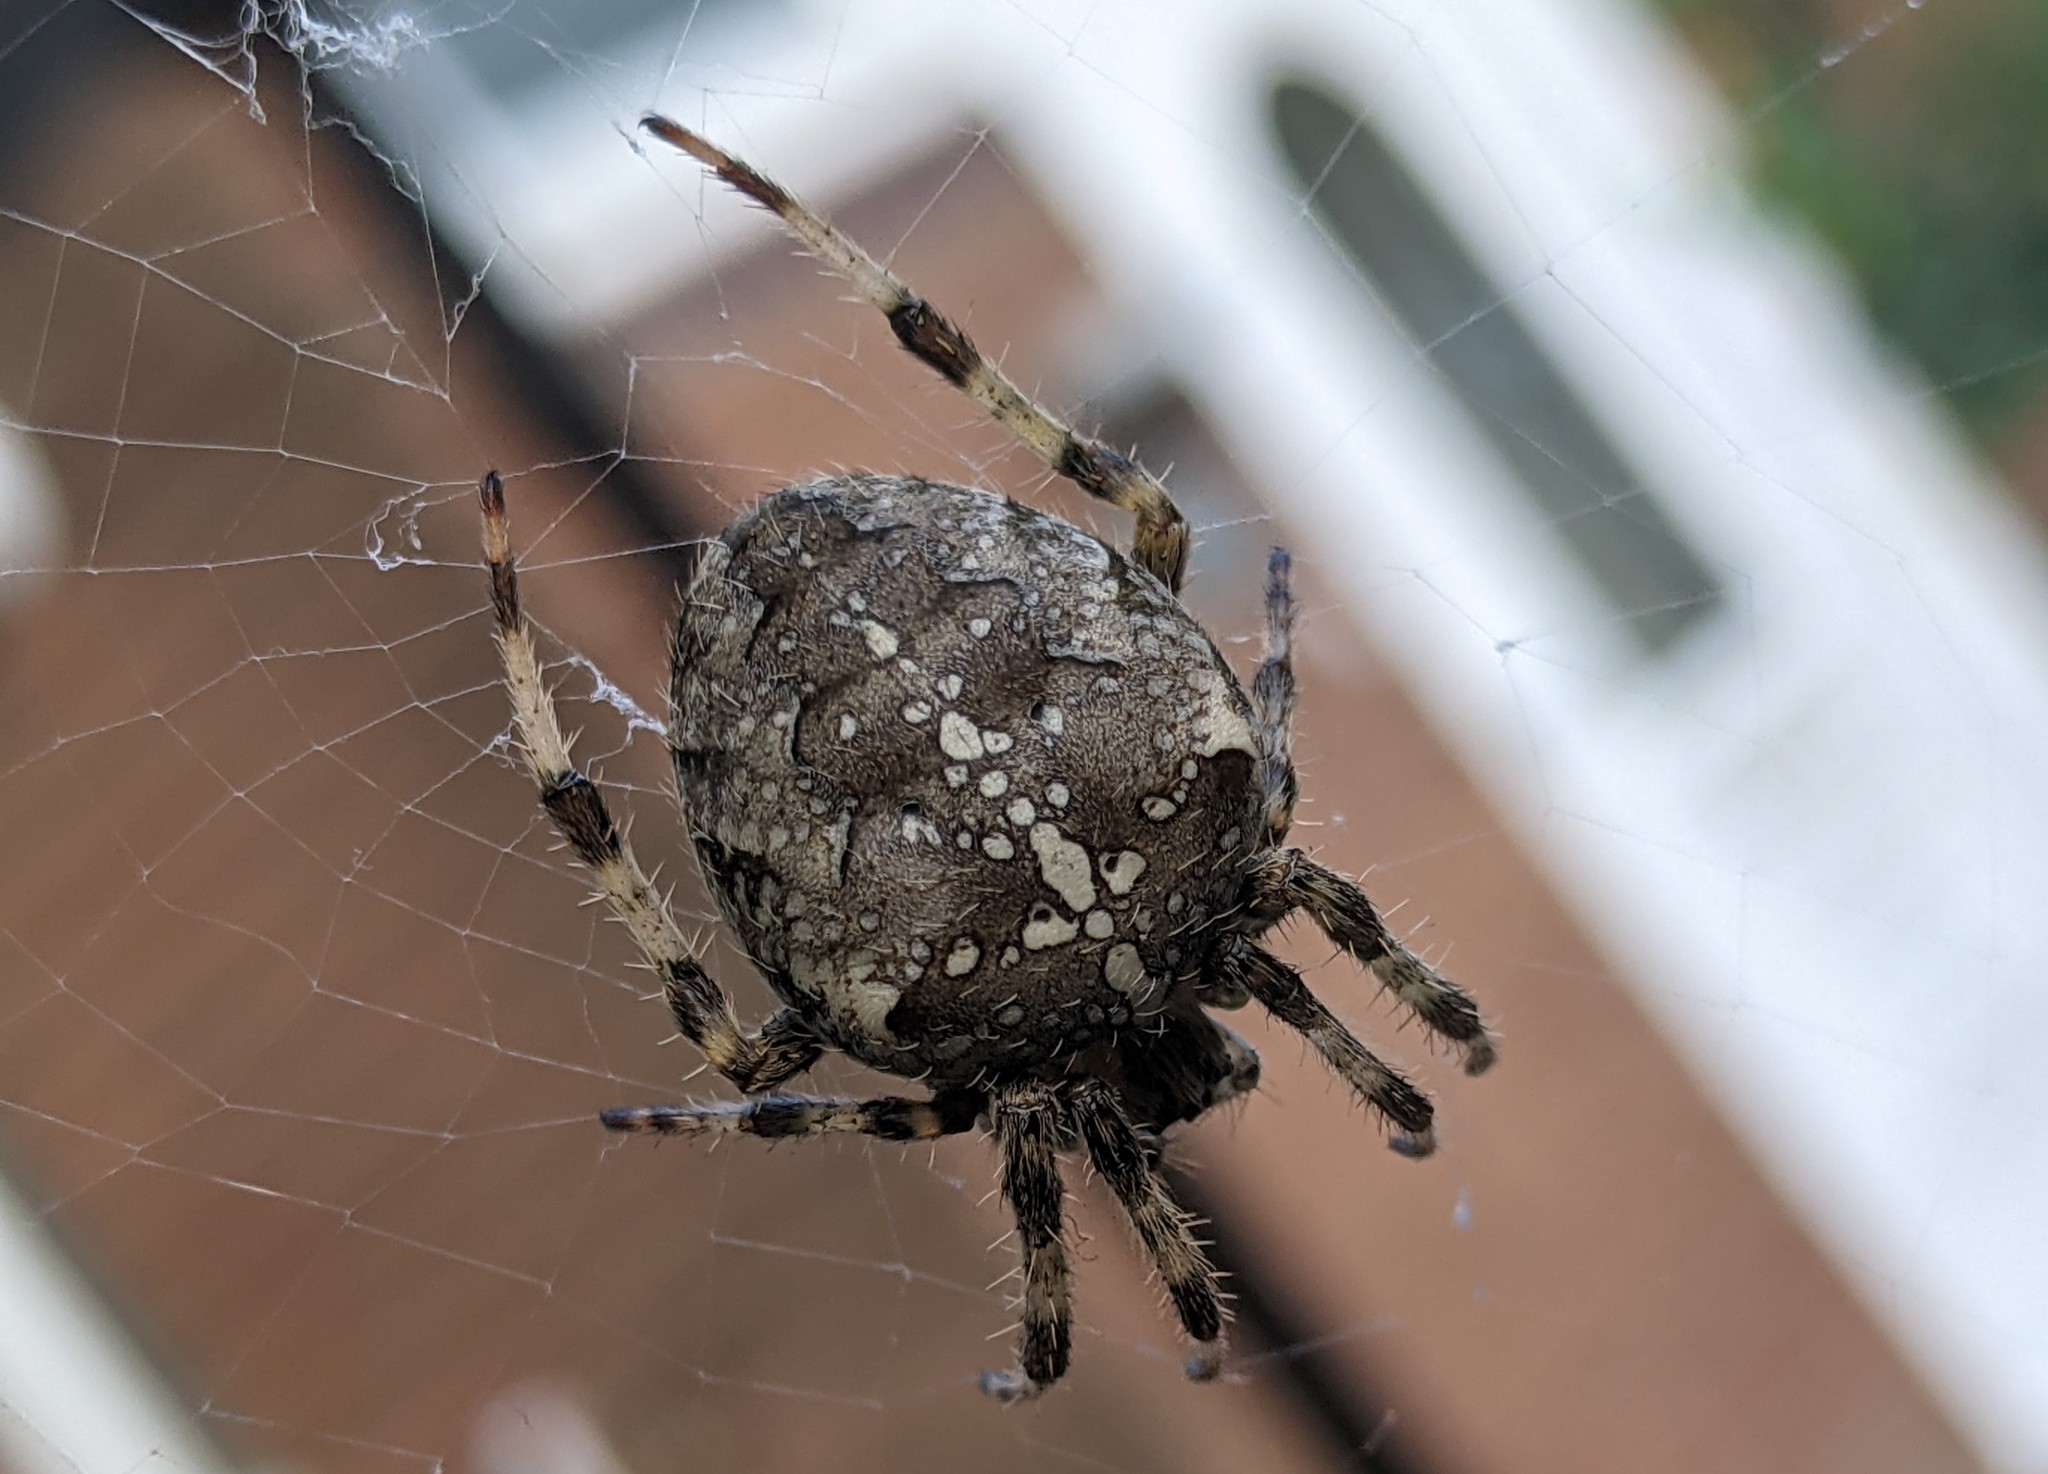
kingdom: Animalia
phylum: Arthropoda
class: Arachnida
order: Araneae
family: Araneidae
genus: Araneus
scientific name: Araneus diadematus
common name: Cross orbweaver
